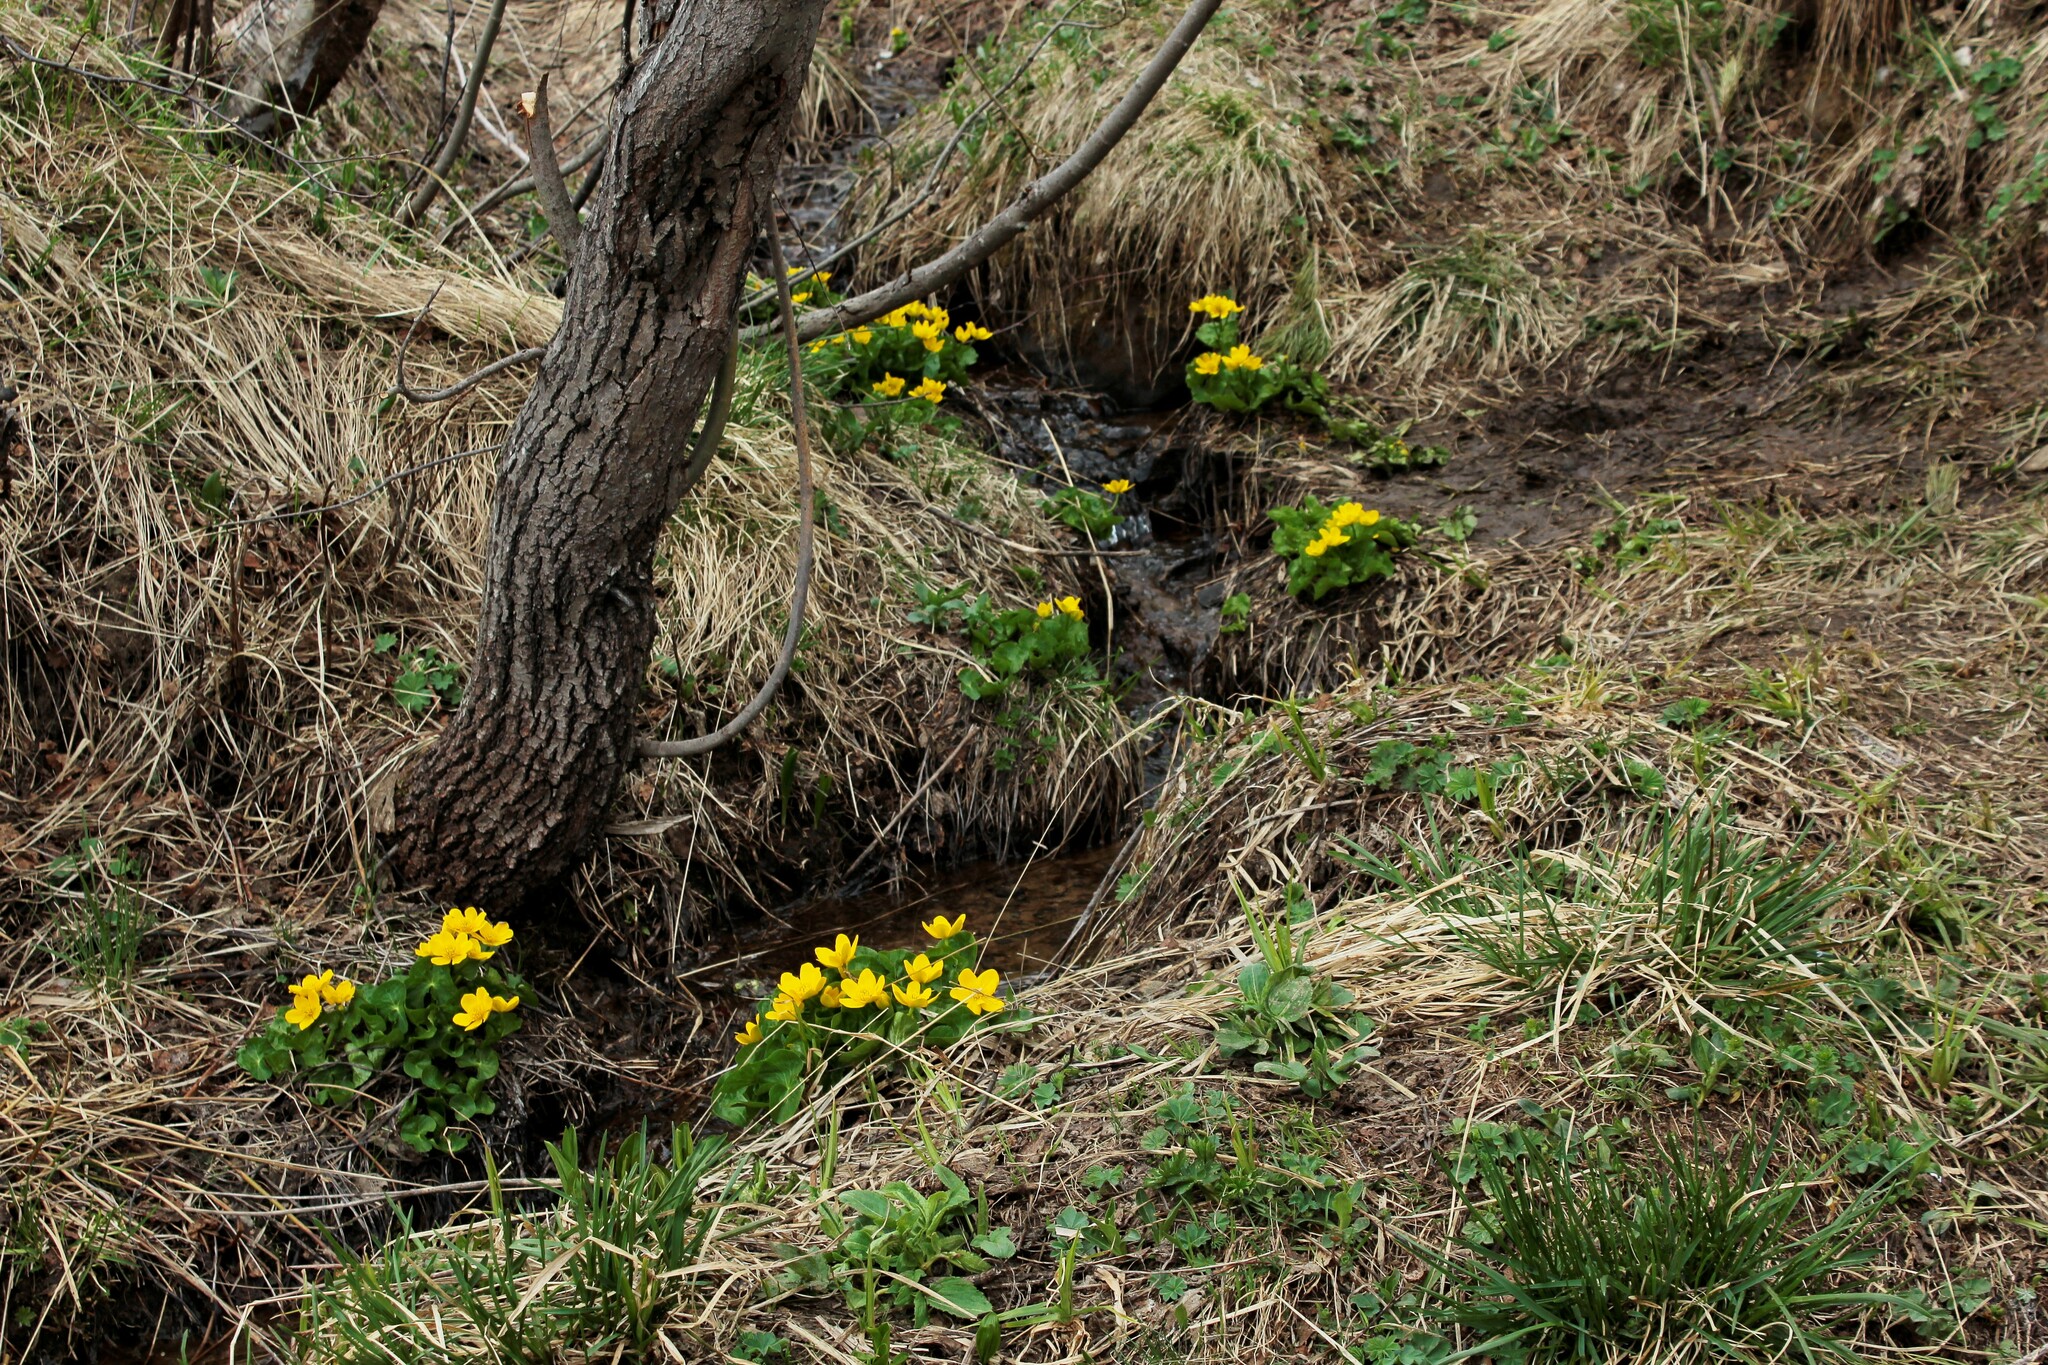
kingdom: Plantae
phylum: Tracheophyta
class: Magnoliopsida
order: Ranunculales
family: Ranunculaceae
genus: Caltha
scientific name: Caltha palustris
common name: Marsh marigold
